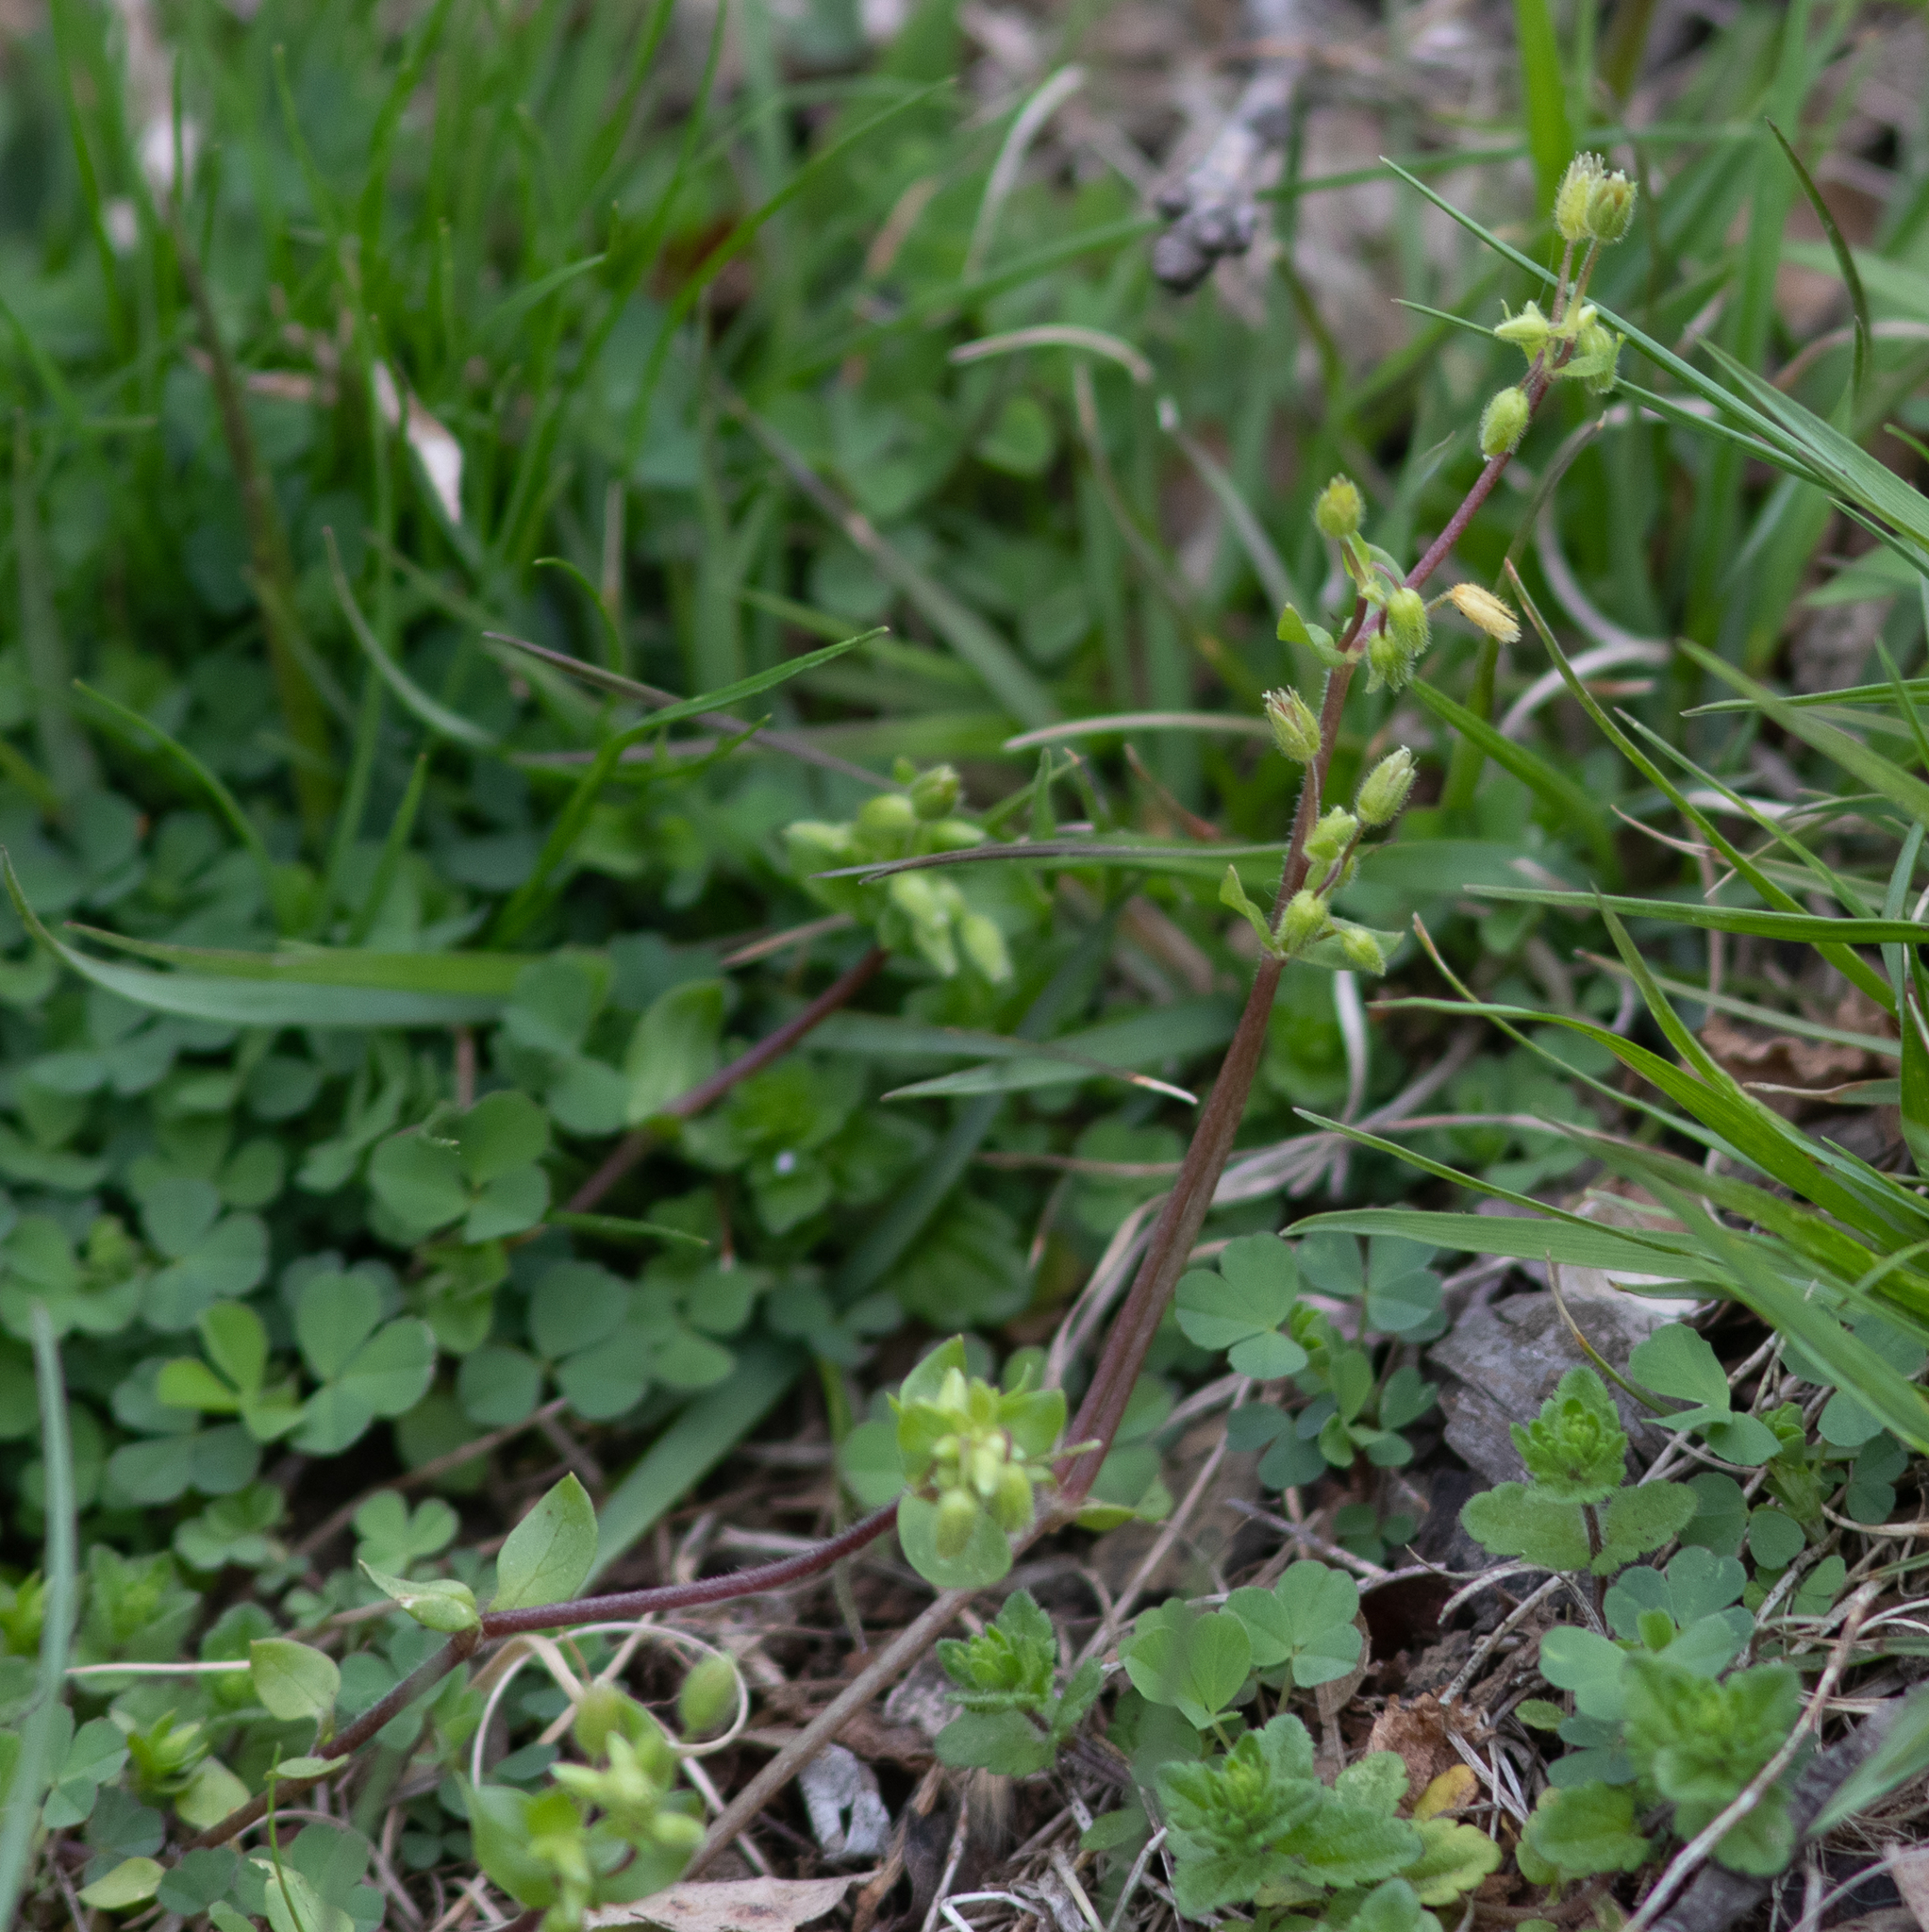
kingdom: Plantae
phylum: Tracheophyta
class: Magnoliopsida
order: Caryophyllales
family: Caryophyllaceae
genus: Stellaria
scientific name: Stellaria media
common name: Common chickweed
